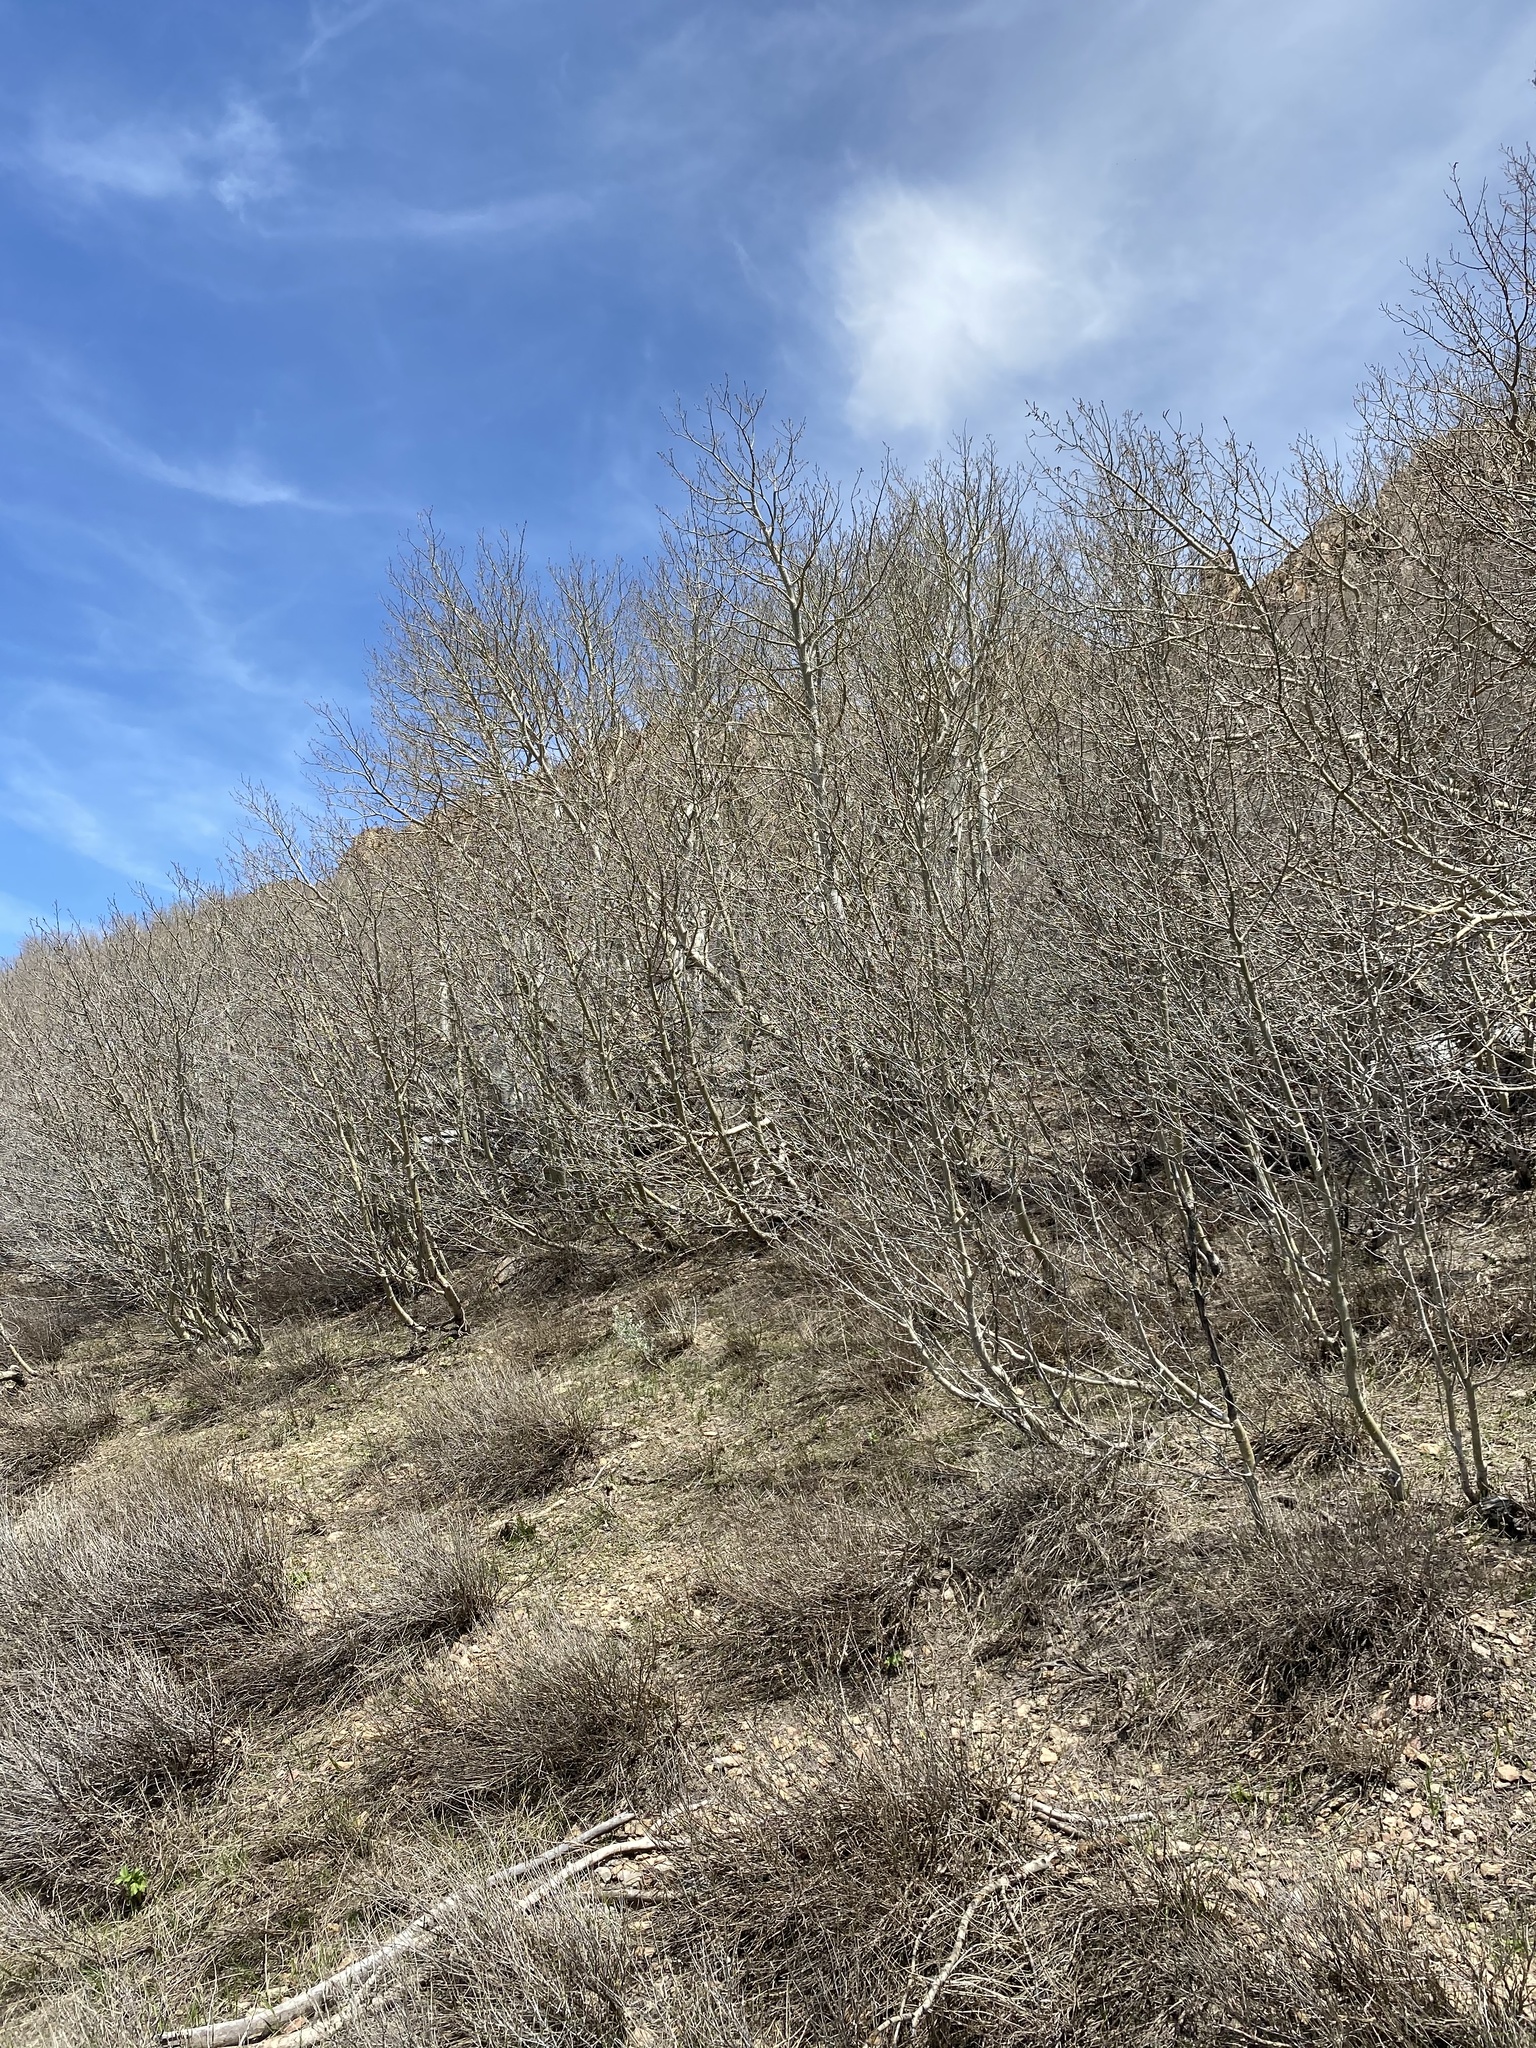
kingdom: Plantae
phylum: Tracheophyta
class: Magnoliopsida
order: Malpighiales
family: Salicaceae
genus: Populus
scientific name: Populus tremuloides
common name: Quaking aspen
